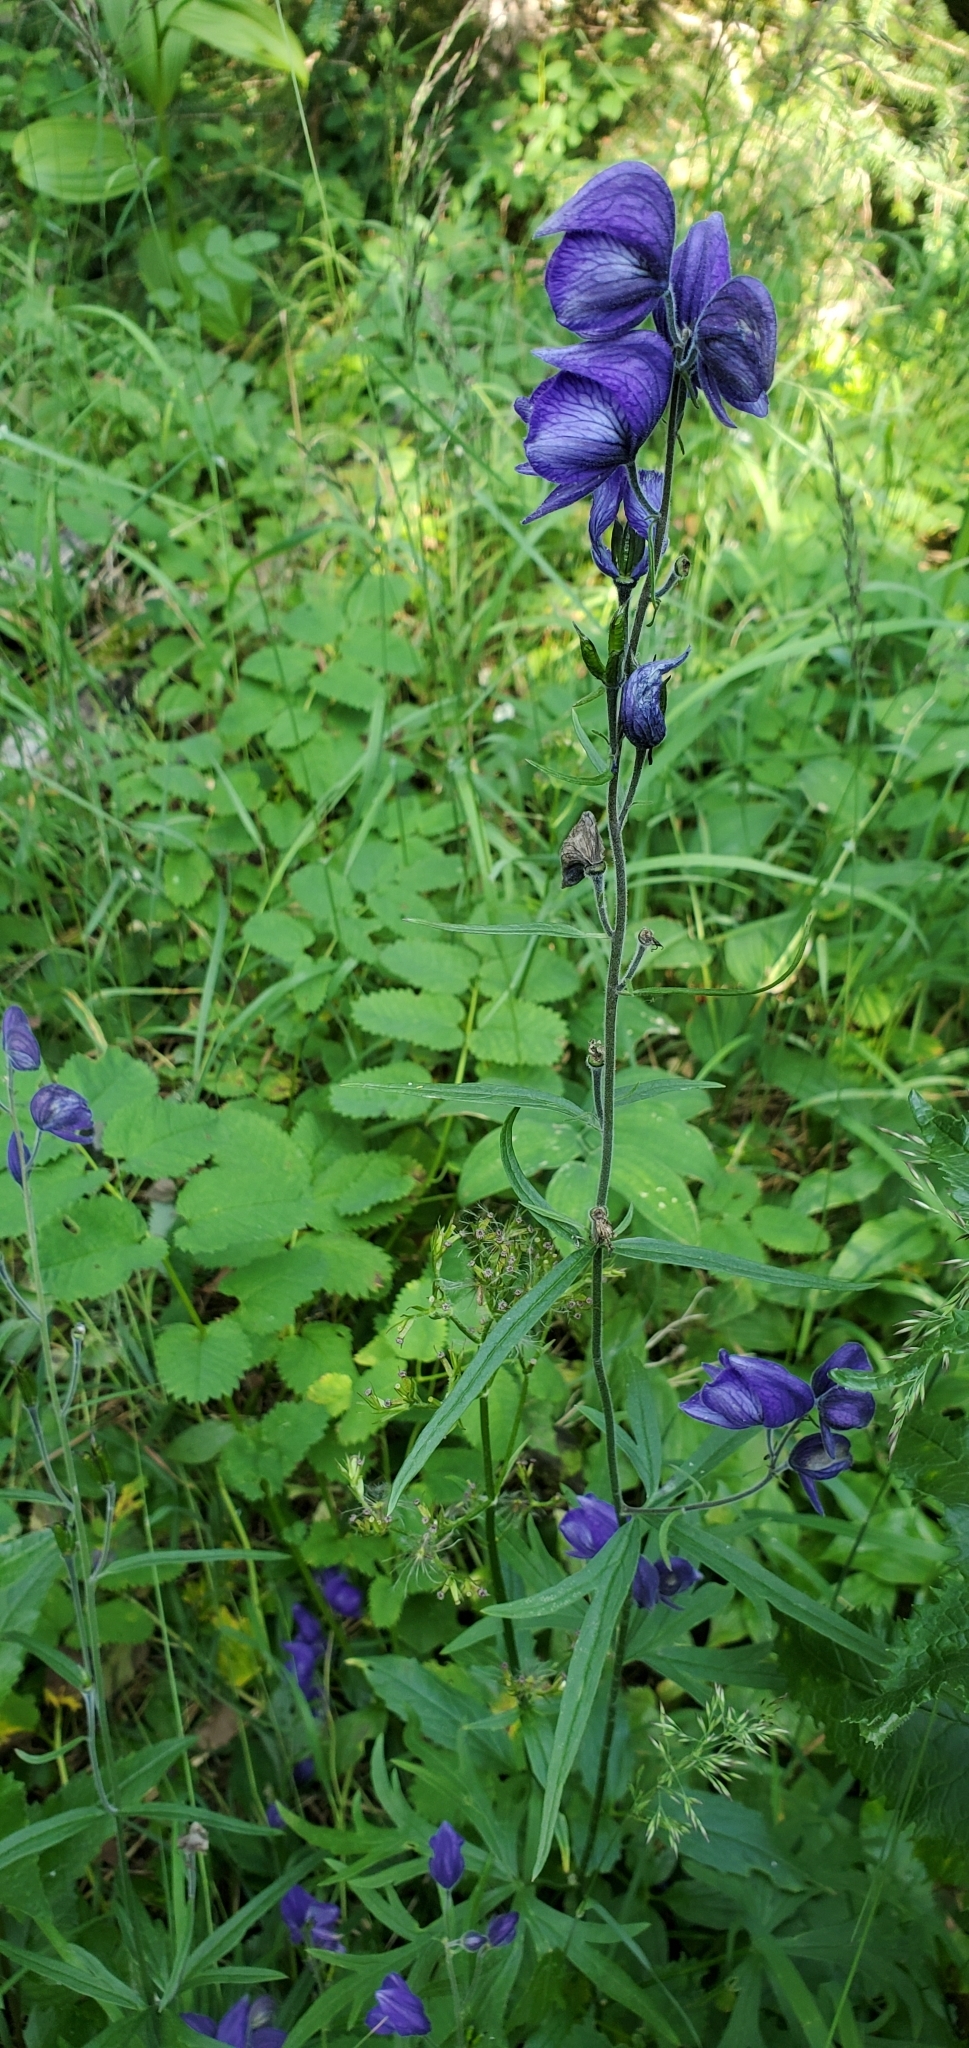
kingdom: Plantae
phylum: Tracheophyta
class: Magnoliopsida
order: Ranunculales
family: Ranunculaceae
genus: Aconitum
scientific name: Aconitum delphiniifolium
